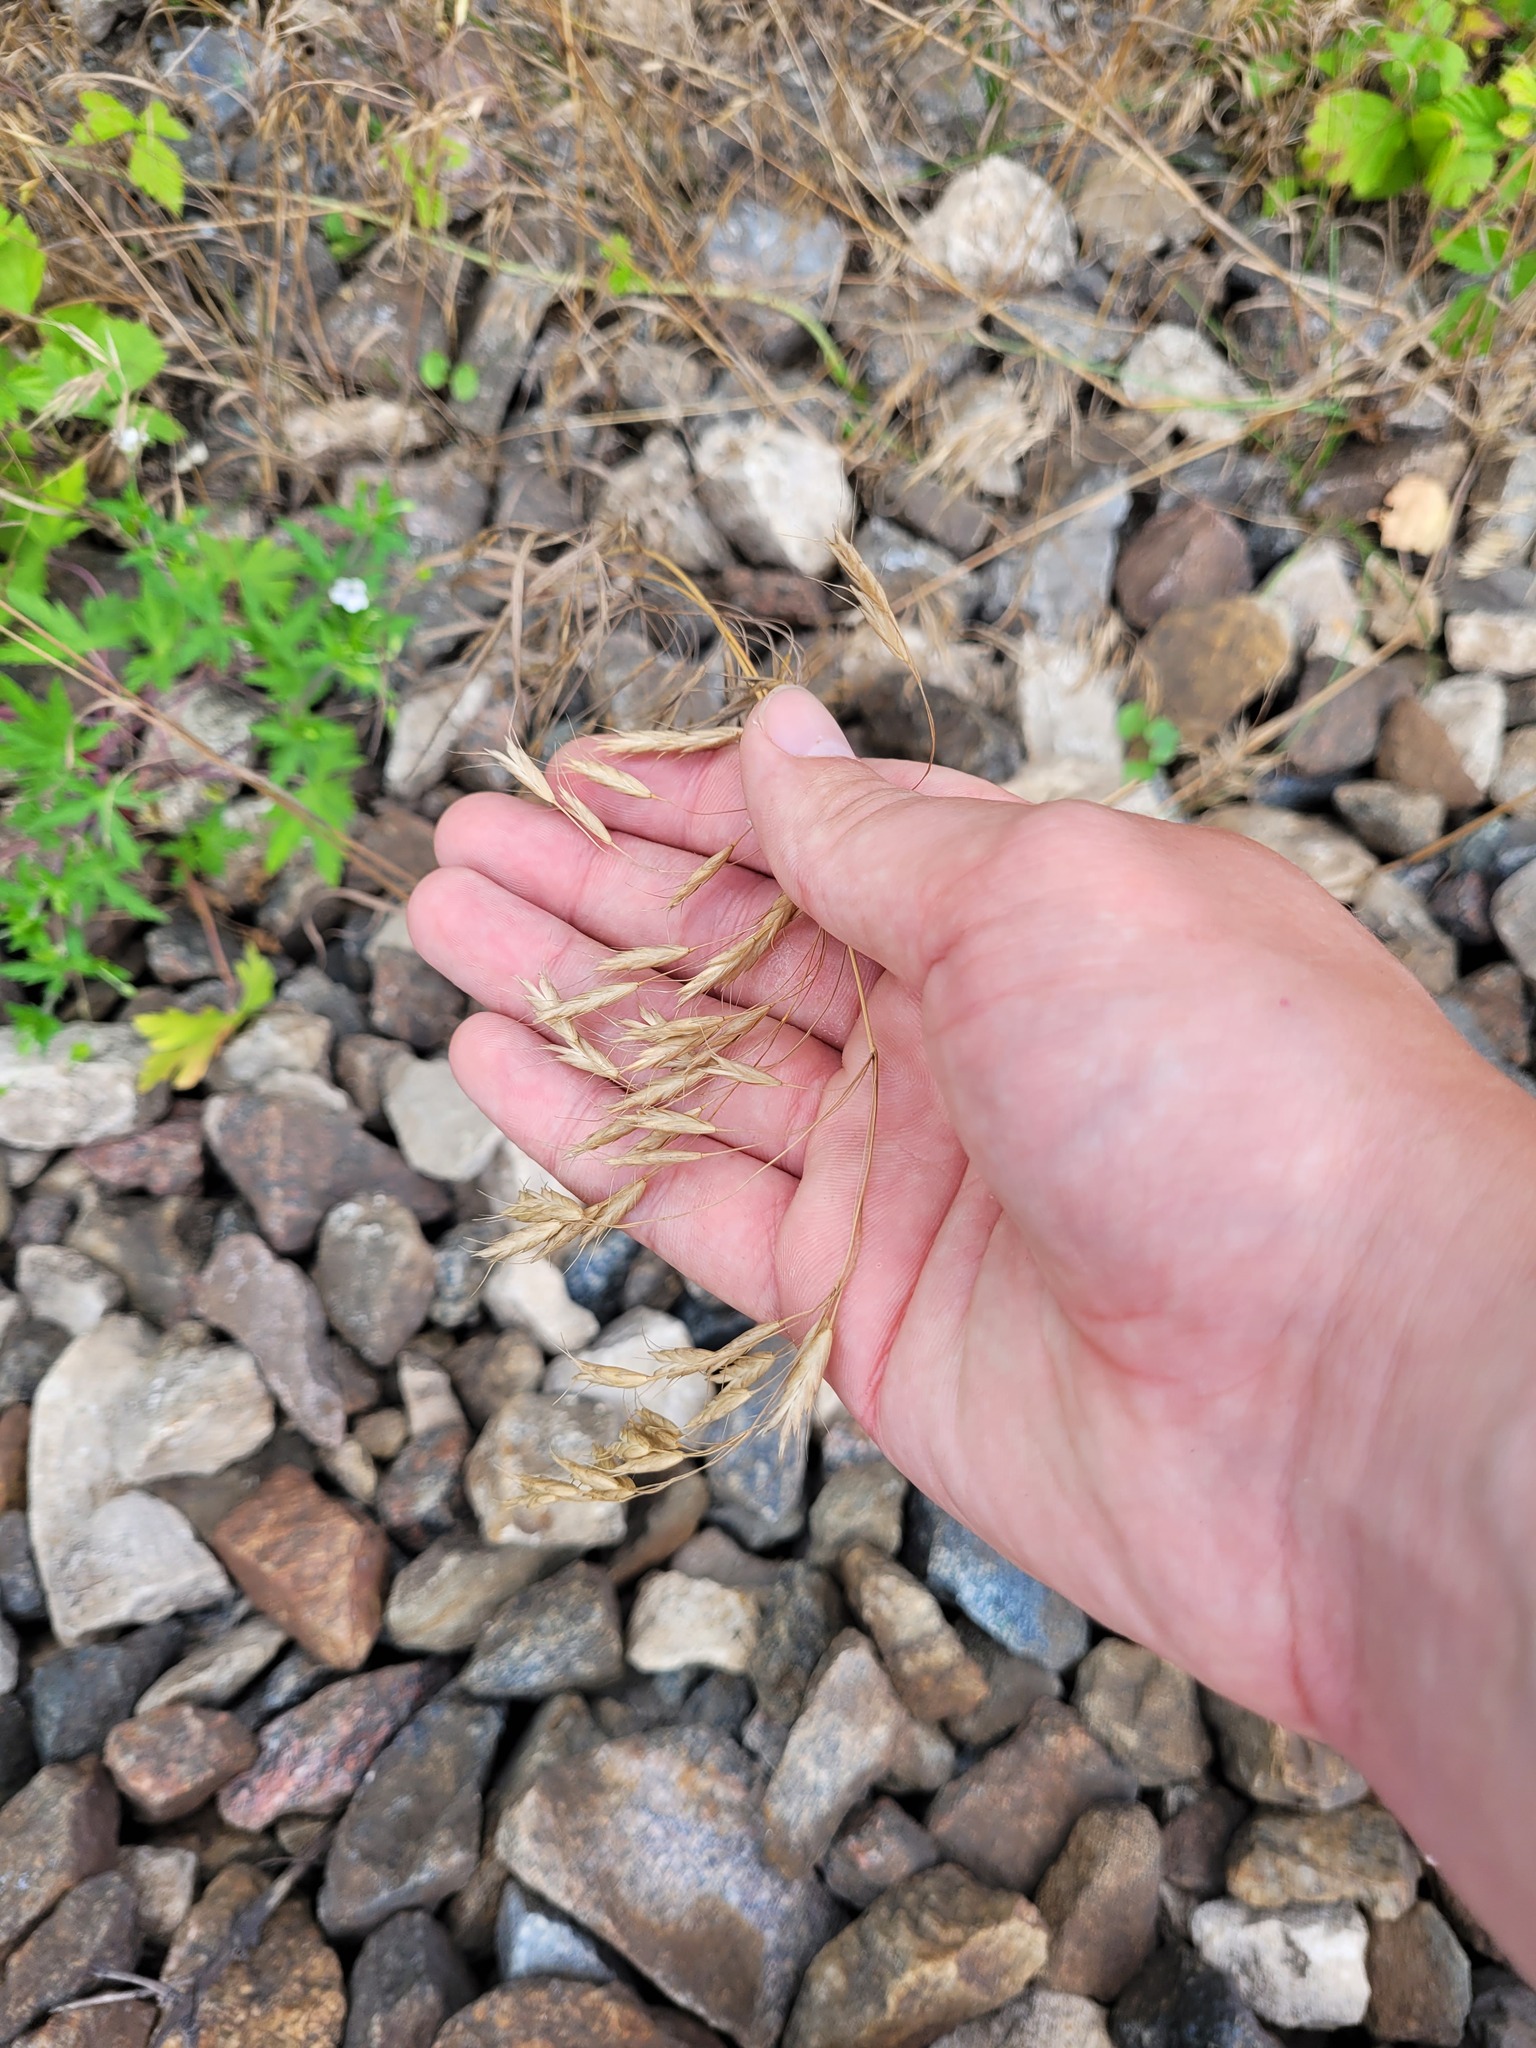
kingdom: Plantae
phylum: Tracheophyta
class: Liliopsida
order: Poales
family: Poaceae
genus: Bromus
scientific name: Bromus japonicus
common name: Japanese brome
